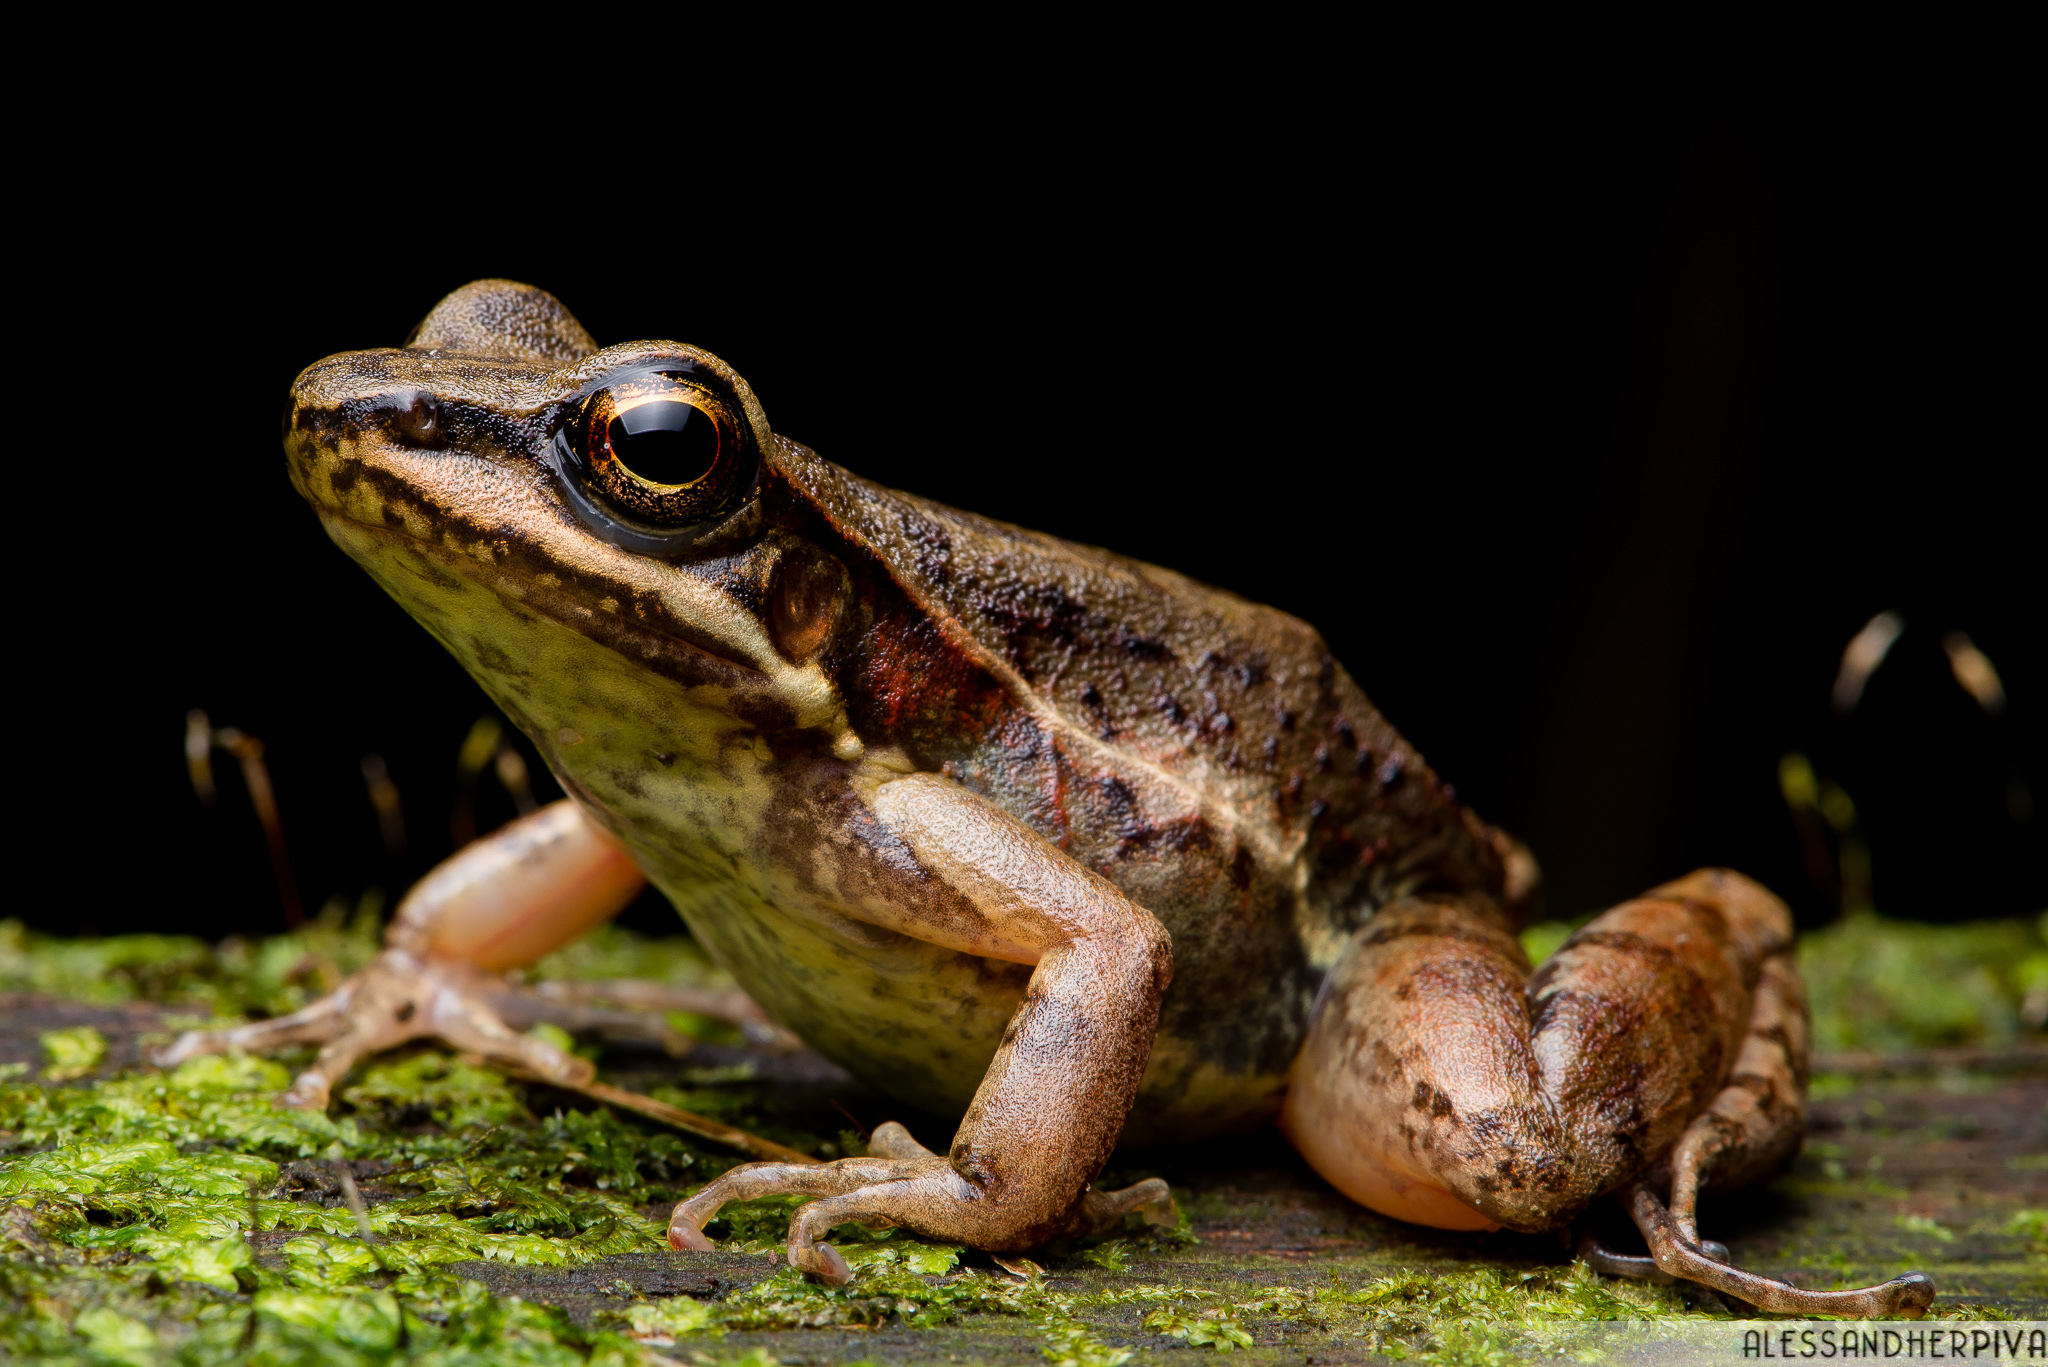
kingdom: Animalia
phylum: Chordata
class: Amphibia
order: Anura
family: Hylodidae
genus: Hylodes
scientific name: Hylodes perplicatus
